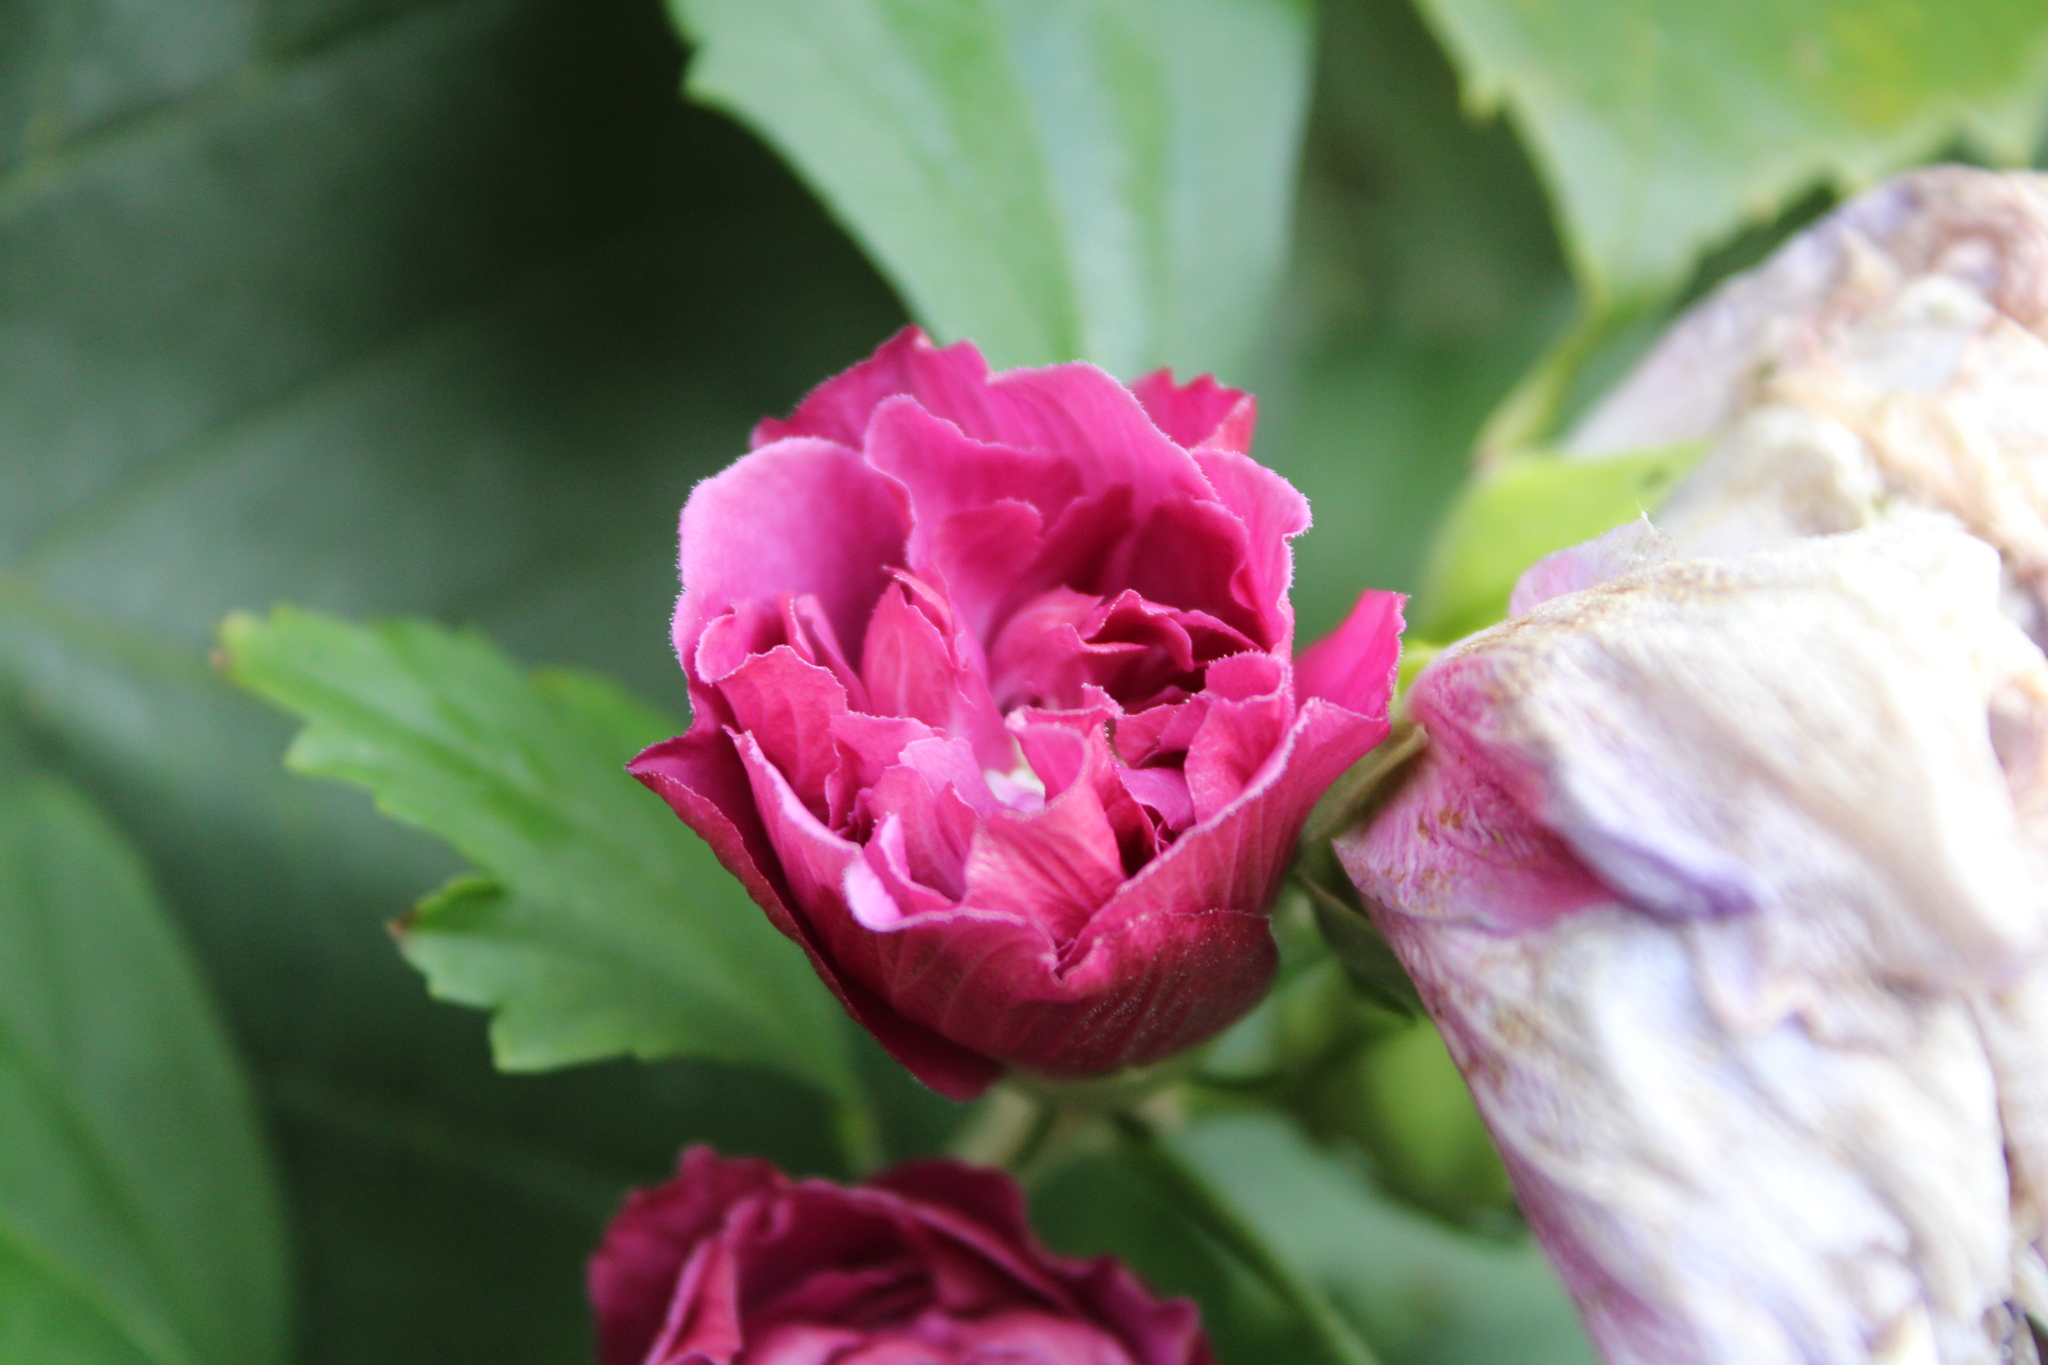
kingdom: Plantae
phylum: Tracheophyta
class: Magnoliopsida
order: Malvales
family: Malvaceae
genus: Hibiscus
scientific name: Hibiscus syriacus
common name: Syrian ketmia
